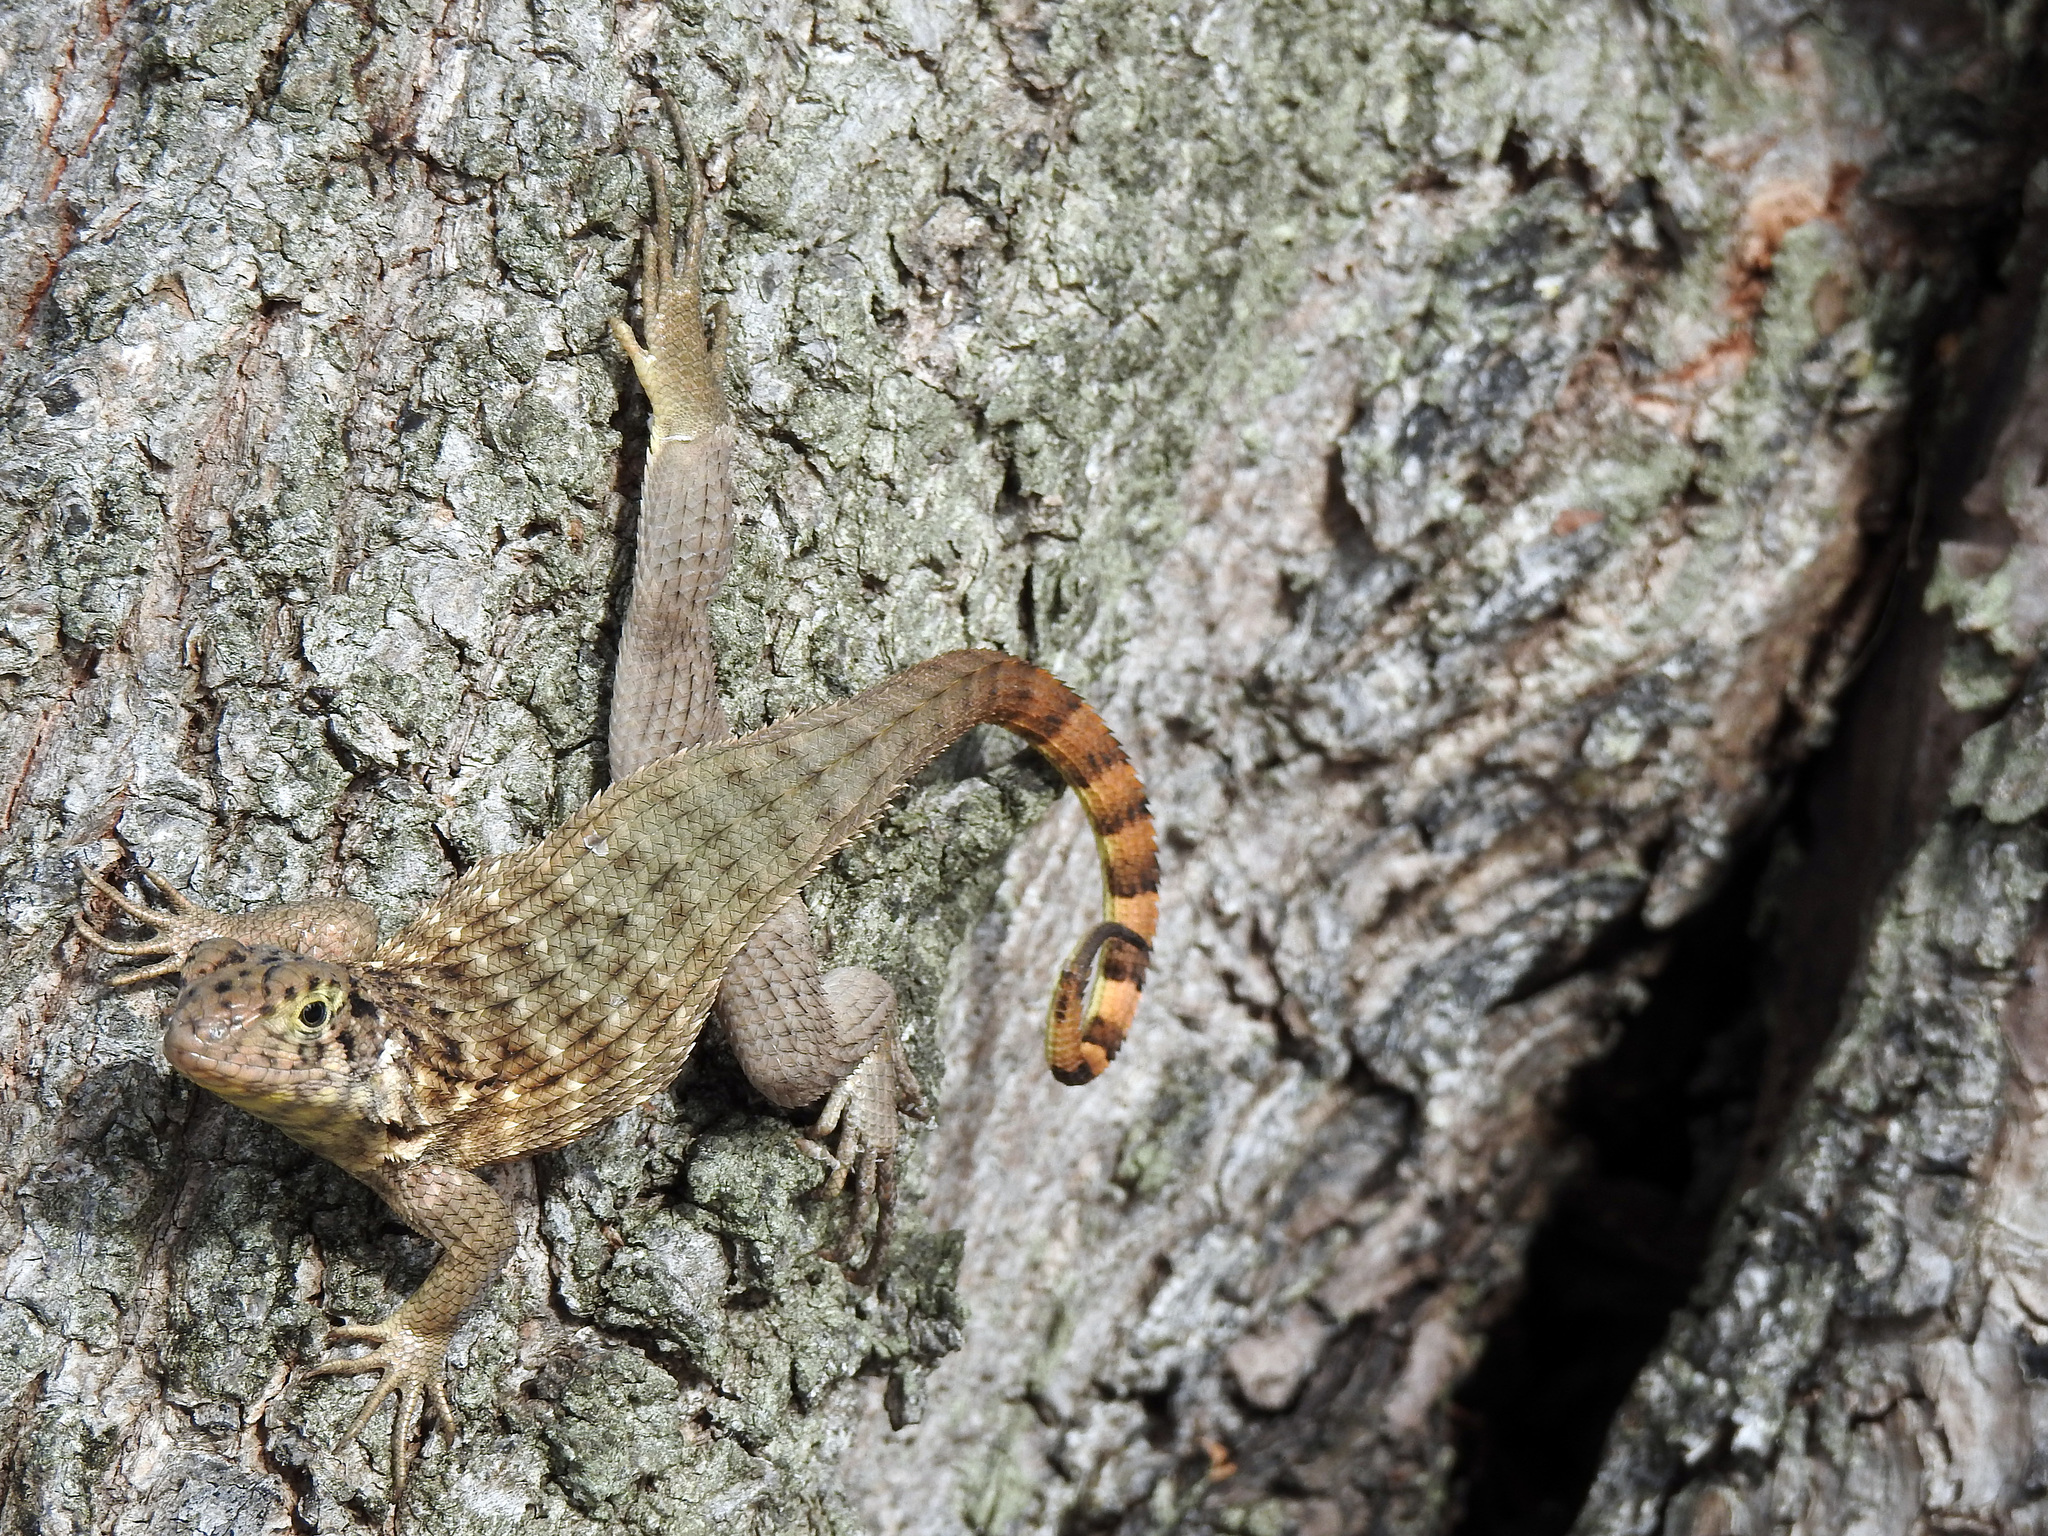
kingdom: Animalia
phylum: Chordata
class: Squamata
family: Leiocephalidae
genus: Leiocephalus
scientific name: Leiocephalus carinatus
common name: Northern curly-tailed lizard
